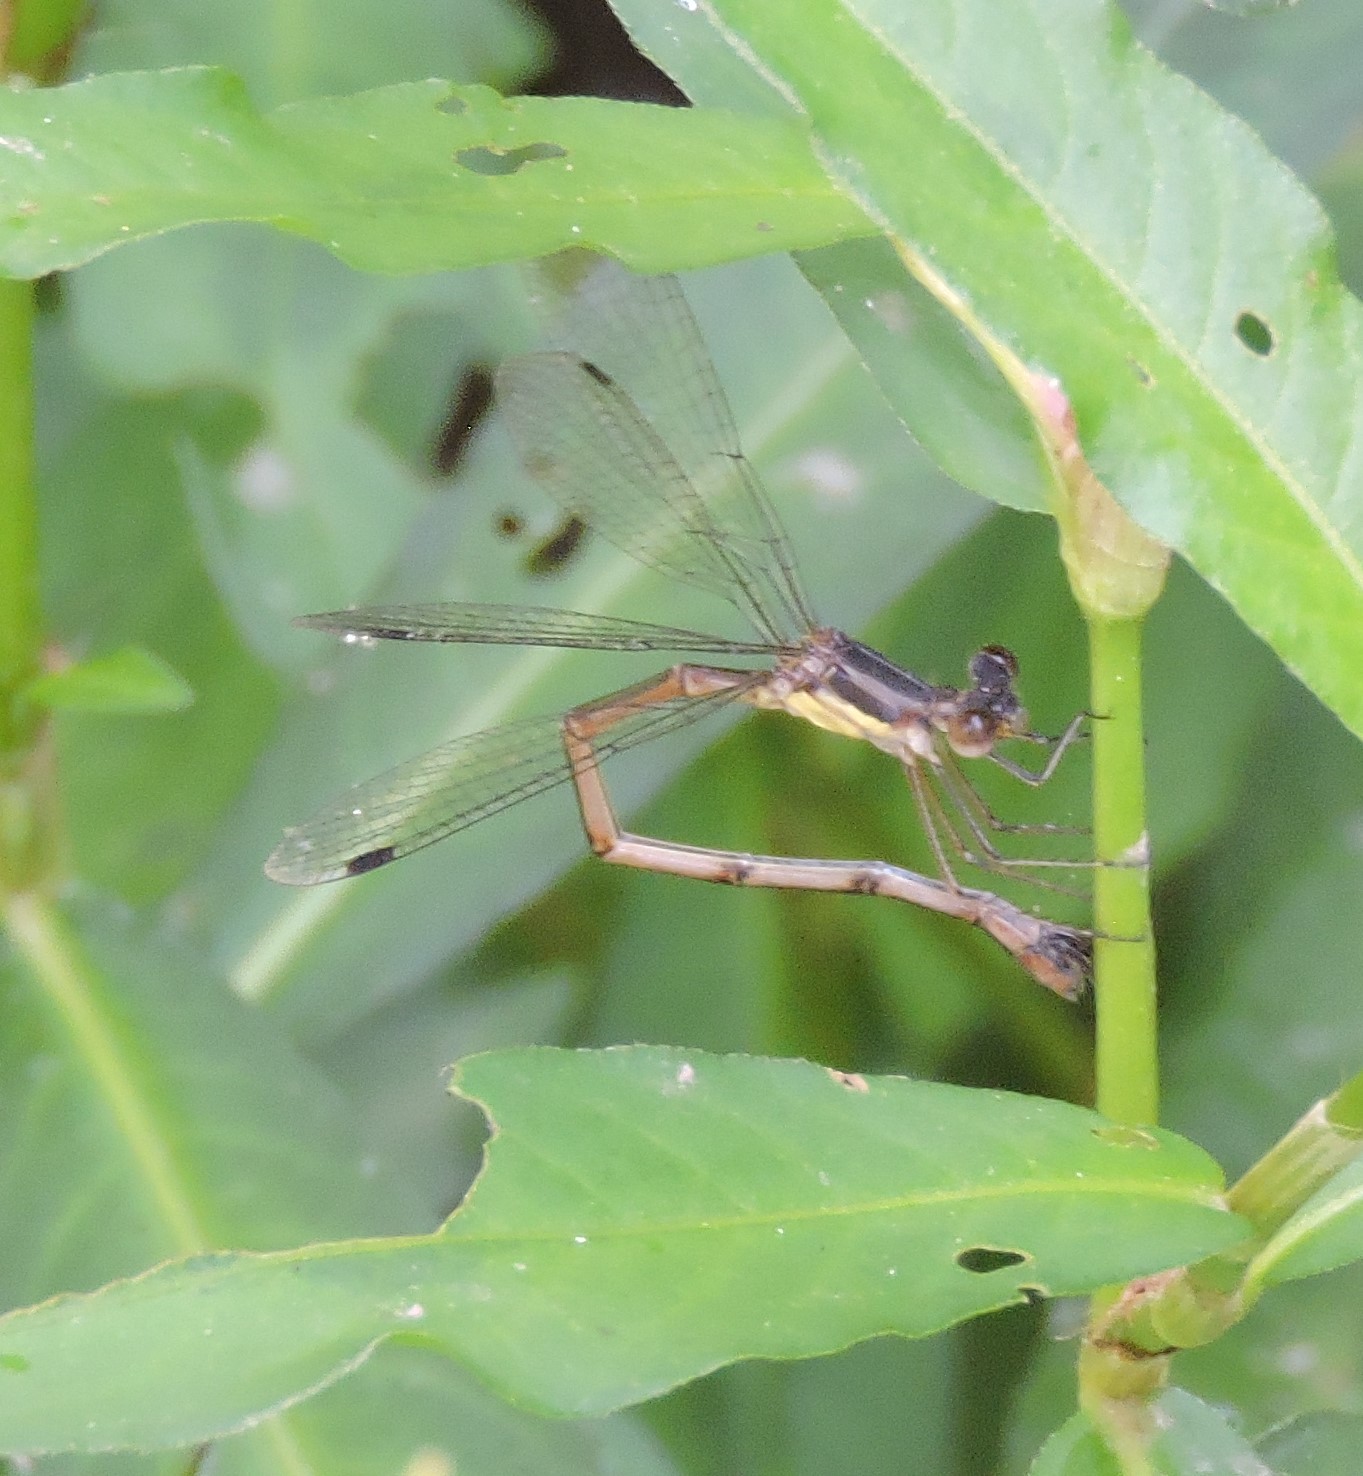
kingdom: Animalia
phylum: Arthropoda
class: Insecta
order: Odonata
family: Lestidae
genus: Lestes
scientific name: Lestes rectangularis
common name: Slender spreadwing
